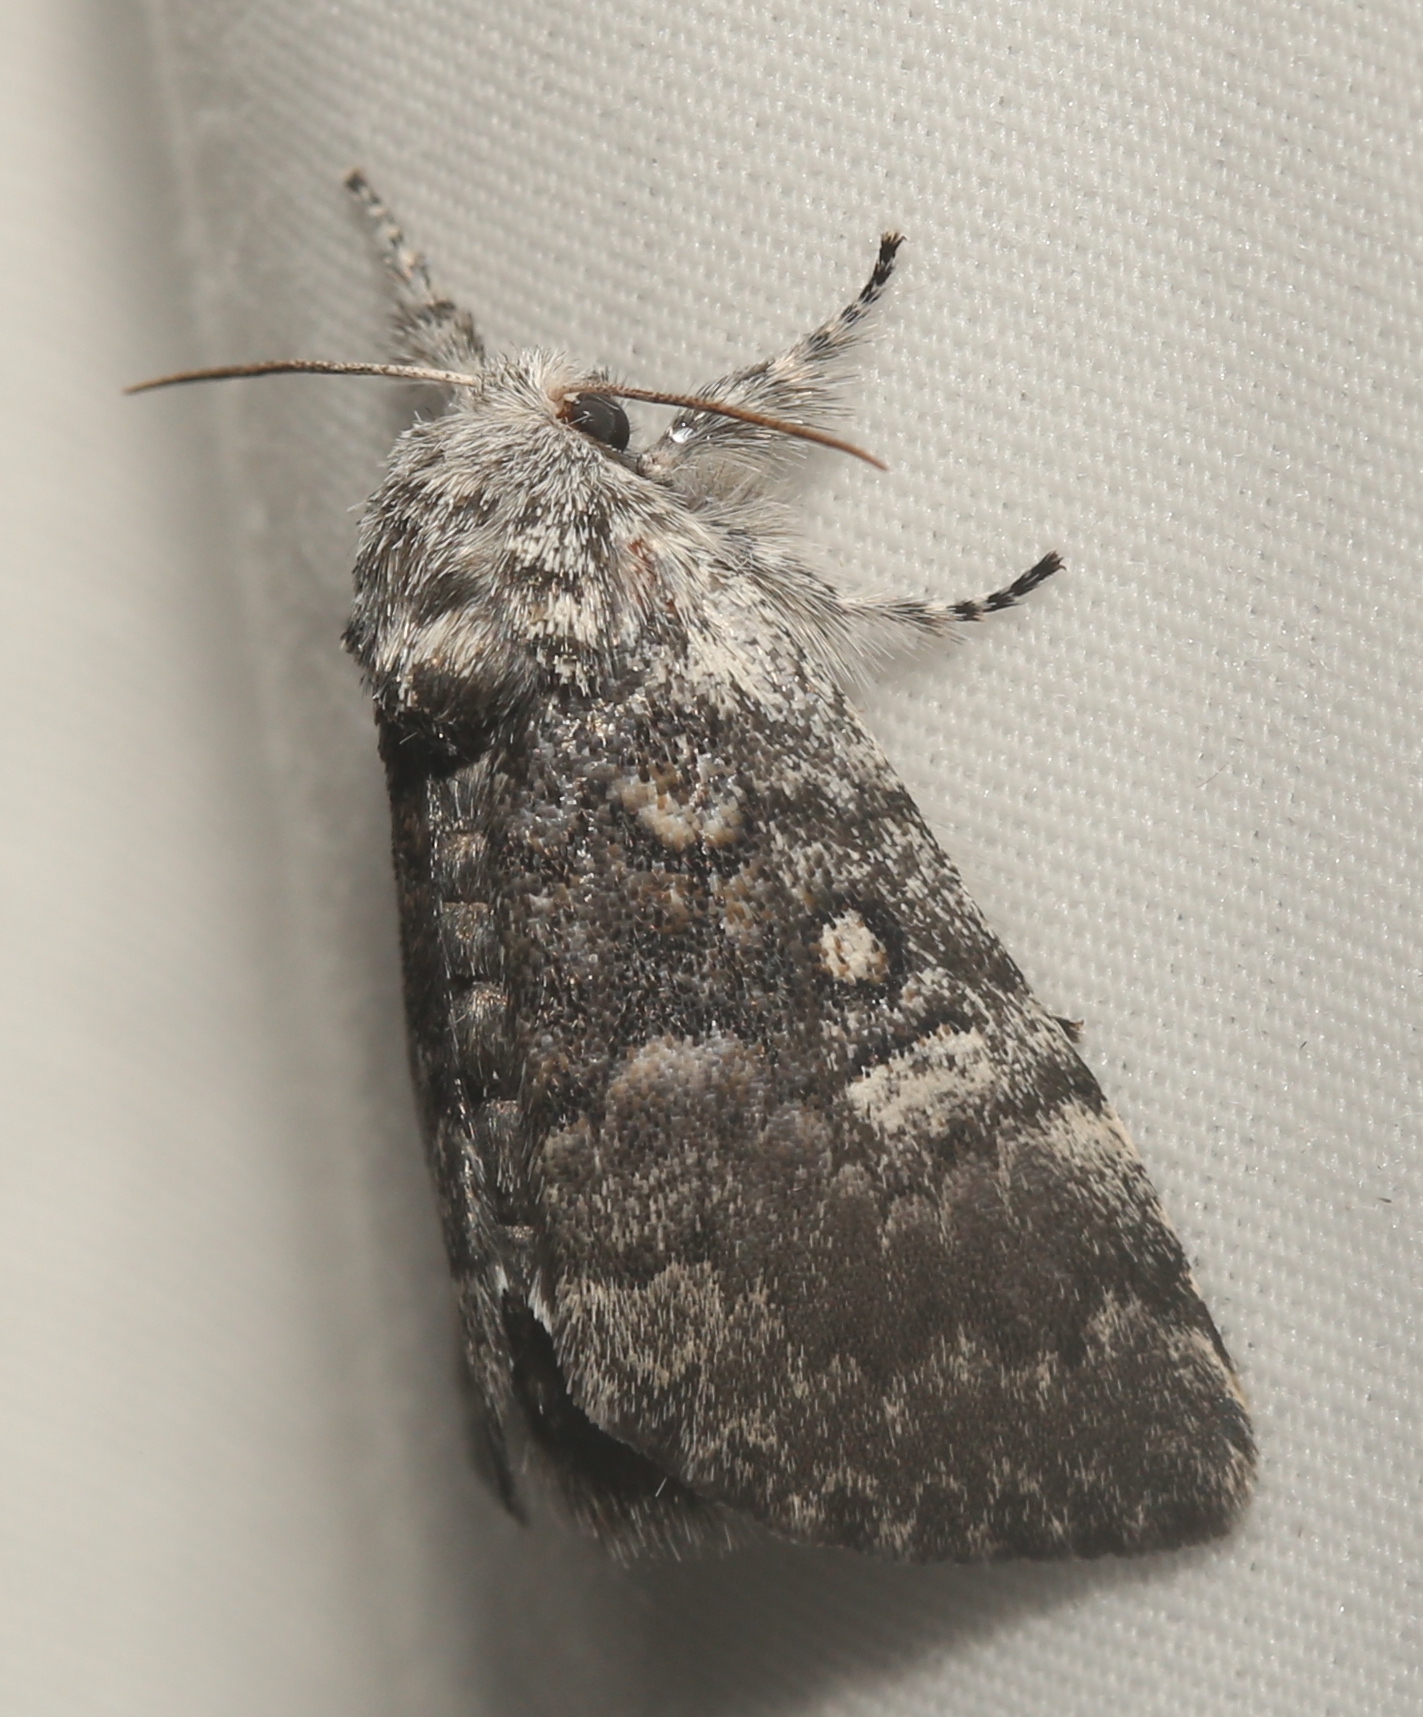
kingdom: Animalia
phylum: Arthropoda
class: Insecta
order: Lepidoptera
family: Noctuidae
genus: Colocasia
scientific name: Colocasia propinquilinea
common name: Close-banded demas
